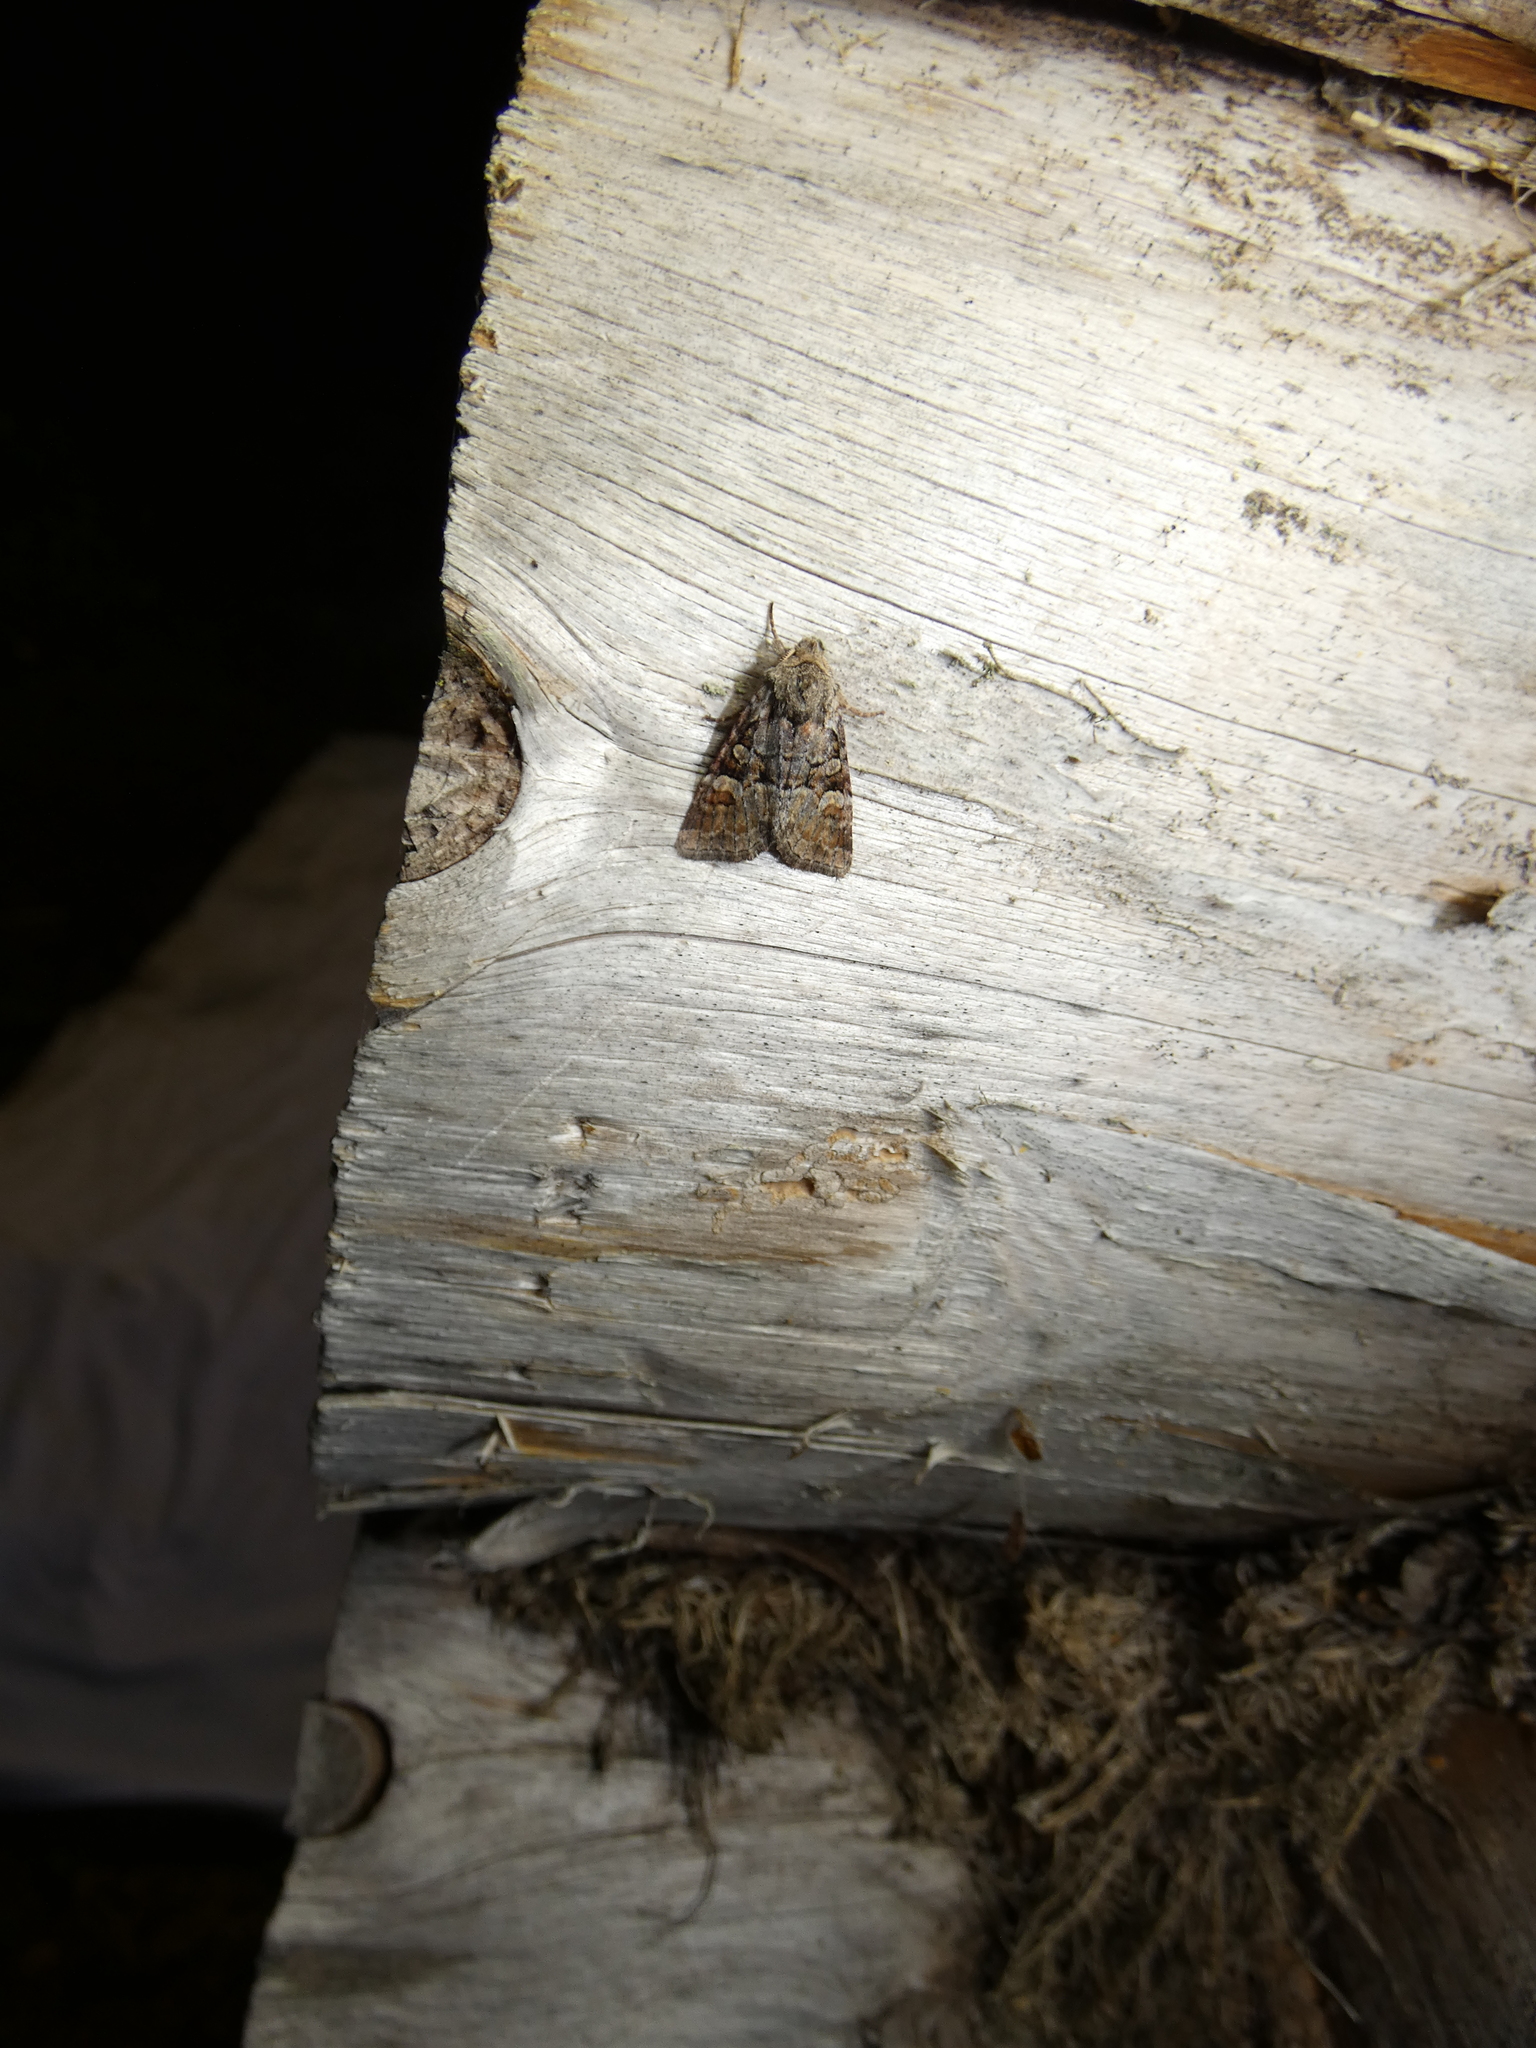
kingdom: Animalia
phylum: Arthropoda
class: Insecta
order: Lepidoptera
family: Noctuidae
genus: Brachylomia
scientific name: Brachylomia viminalis
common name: Minor shoulder-knot
